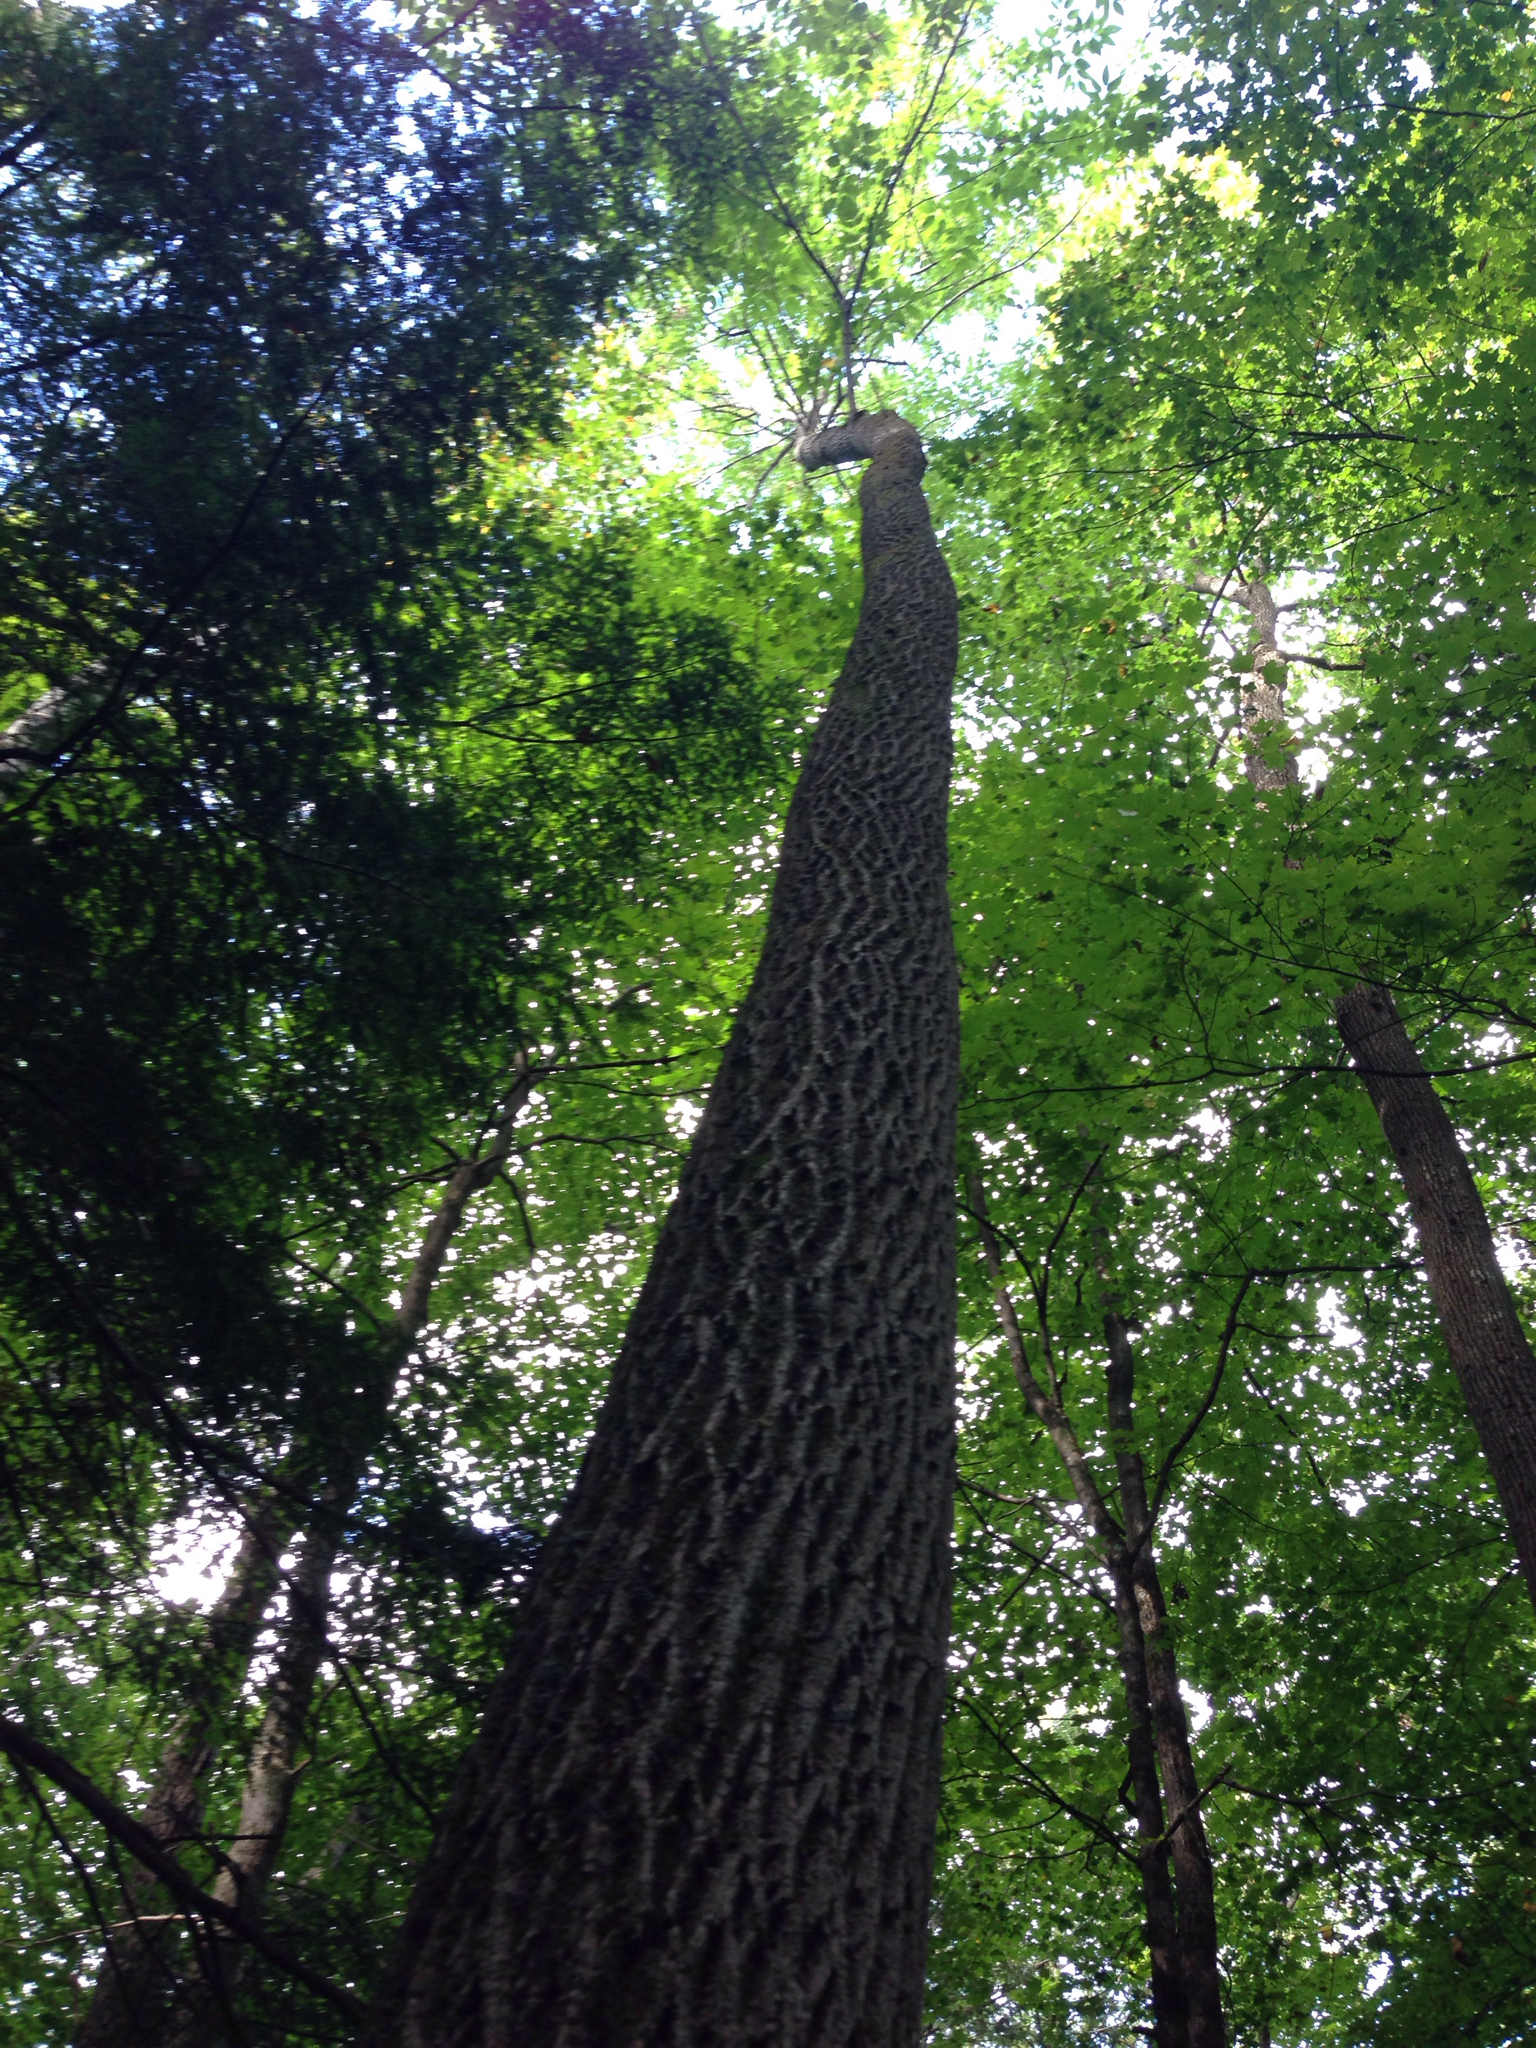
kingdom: Plantae
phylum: Tracheophyta
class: Magnoliopsida
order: Lamiales
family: Oleaceae
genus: Fraxinus
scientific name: Fraxinus americana
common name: White ash
